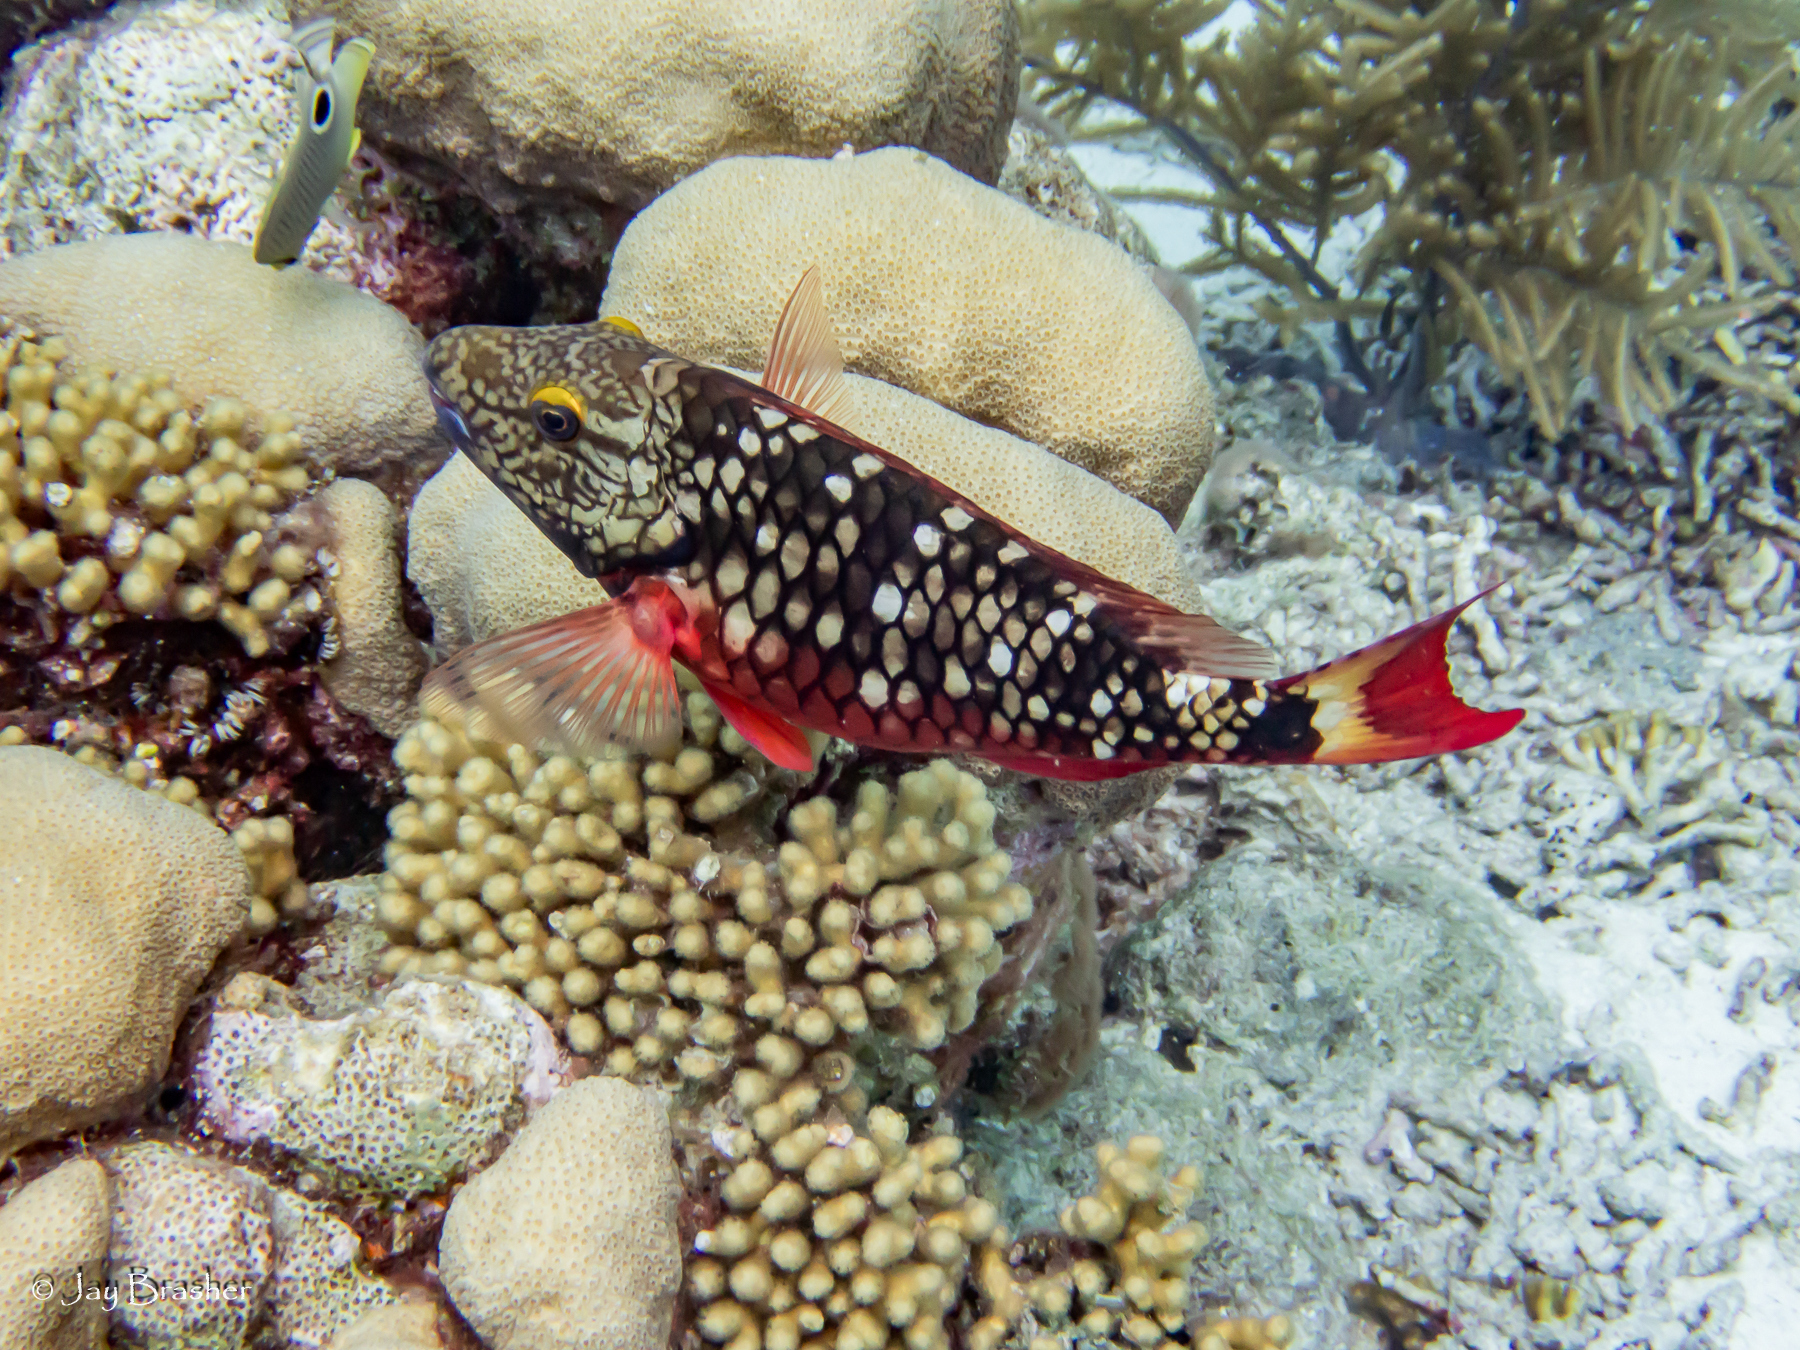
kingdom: Animalia
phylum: Cnidaria
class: Anthozoa
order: Scleractinia
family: Merulinidae
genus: Orbicella
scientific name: Orbicella annularis
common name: Boulder star coral
